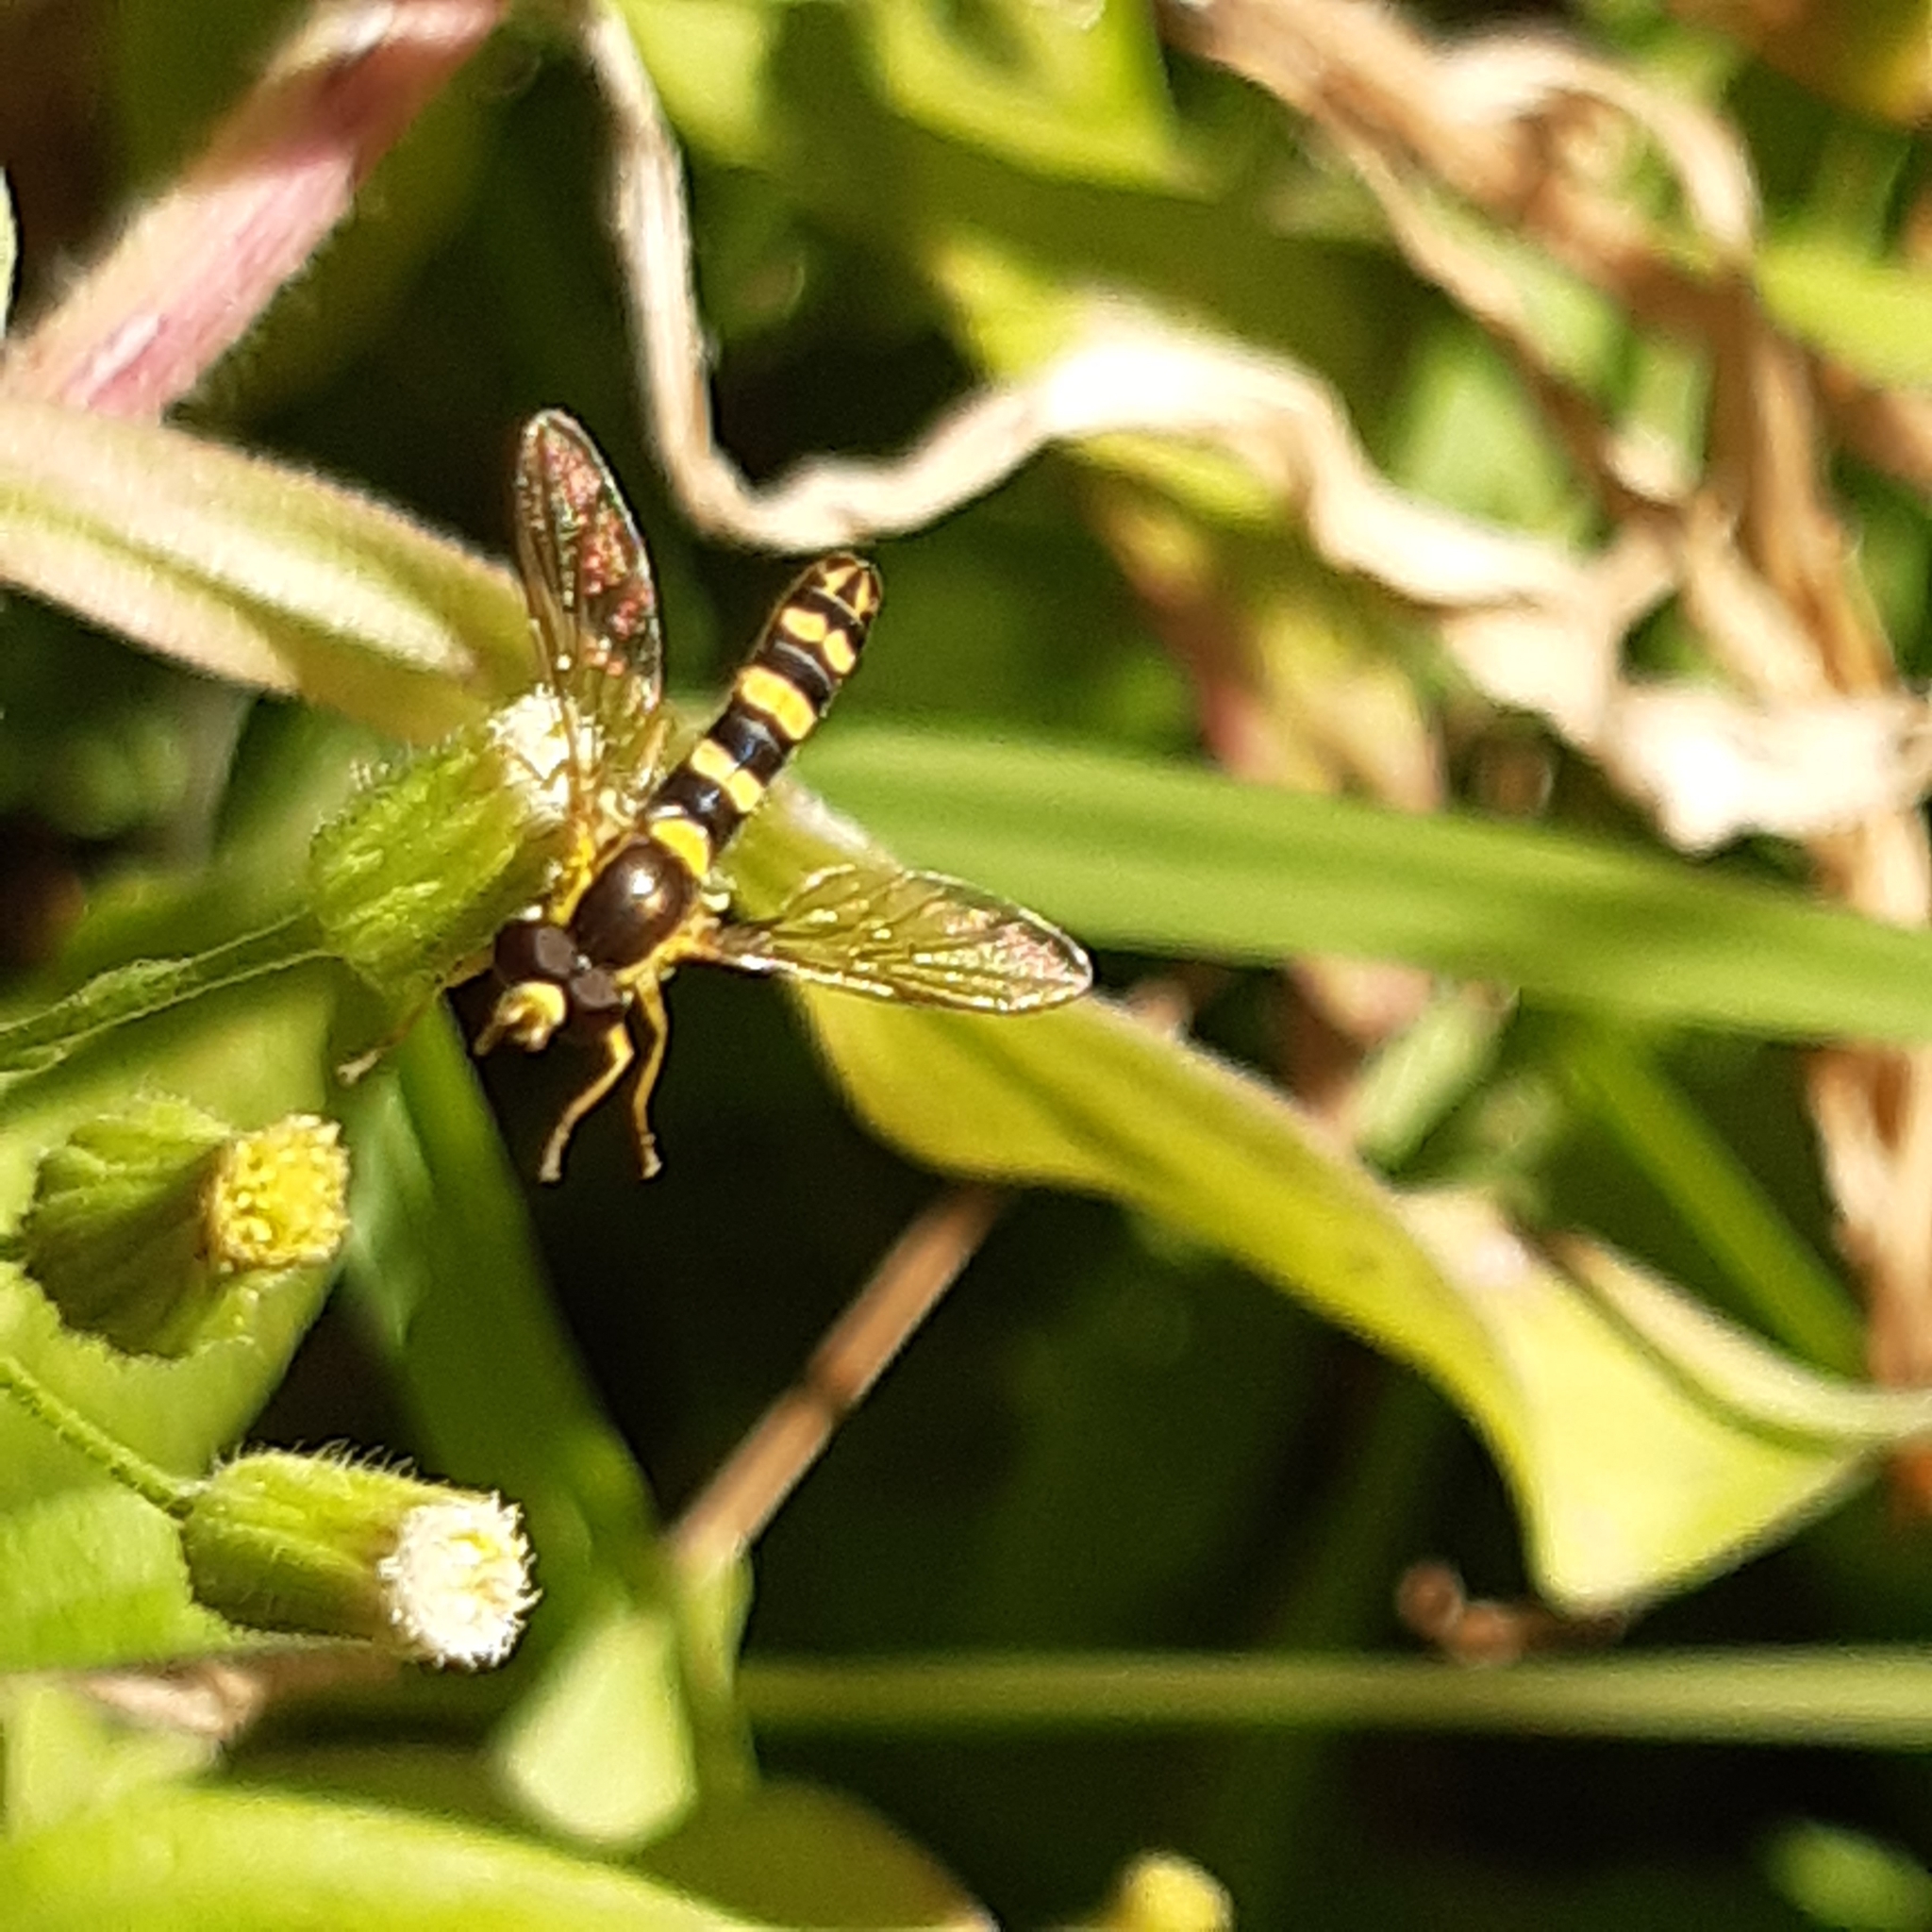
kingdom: Animalia
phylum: Arthropoda
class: Insecta
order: Diptera
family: Syrphidae
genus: Sphaerophoria
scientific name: Sphaerophoria scripta
